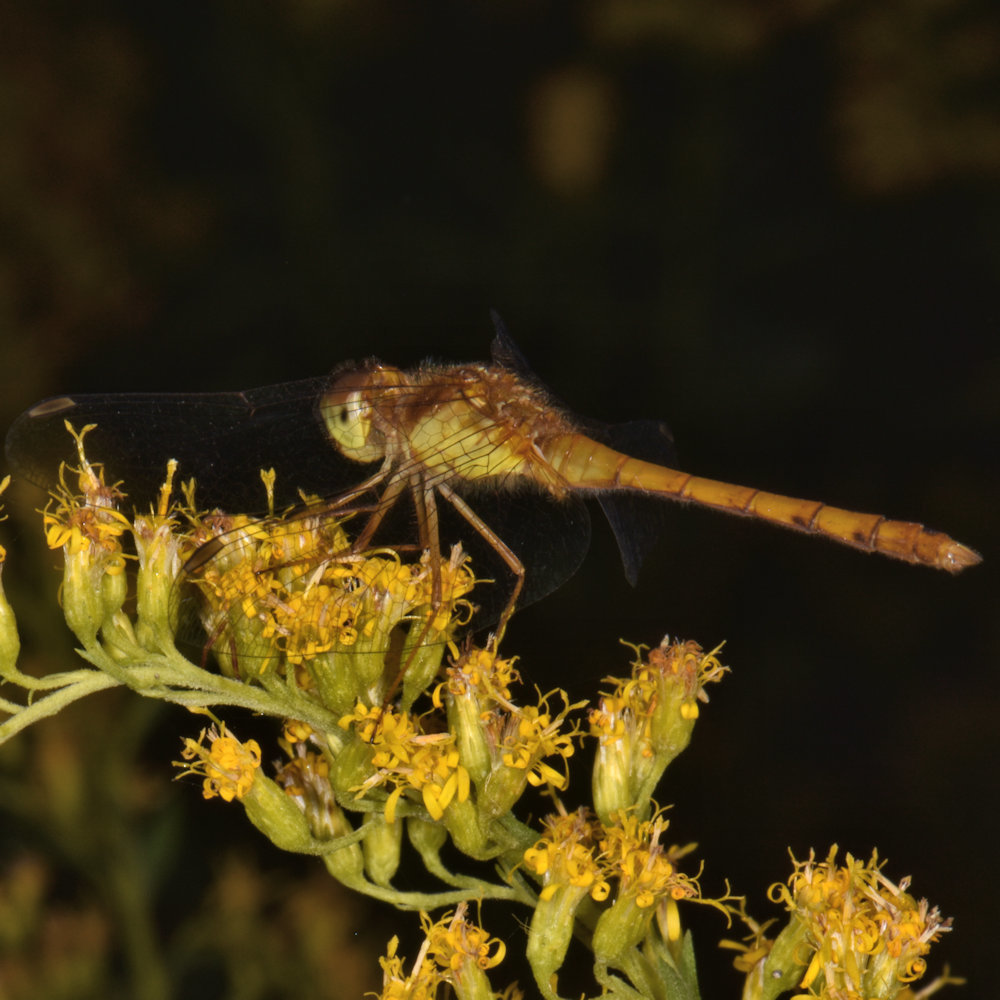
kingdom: Animalia
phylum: Arthropoda
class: Insecta
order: Odonata
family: Libellulidae
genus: Sympetrum
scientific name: Sympetrum vicinum
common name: Autumn meadowhawk
